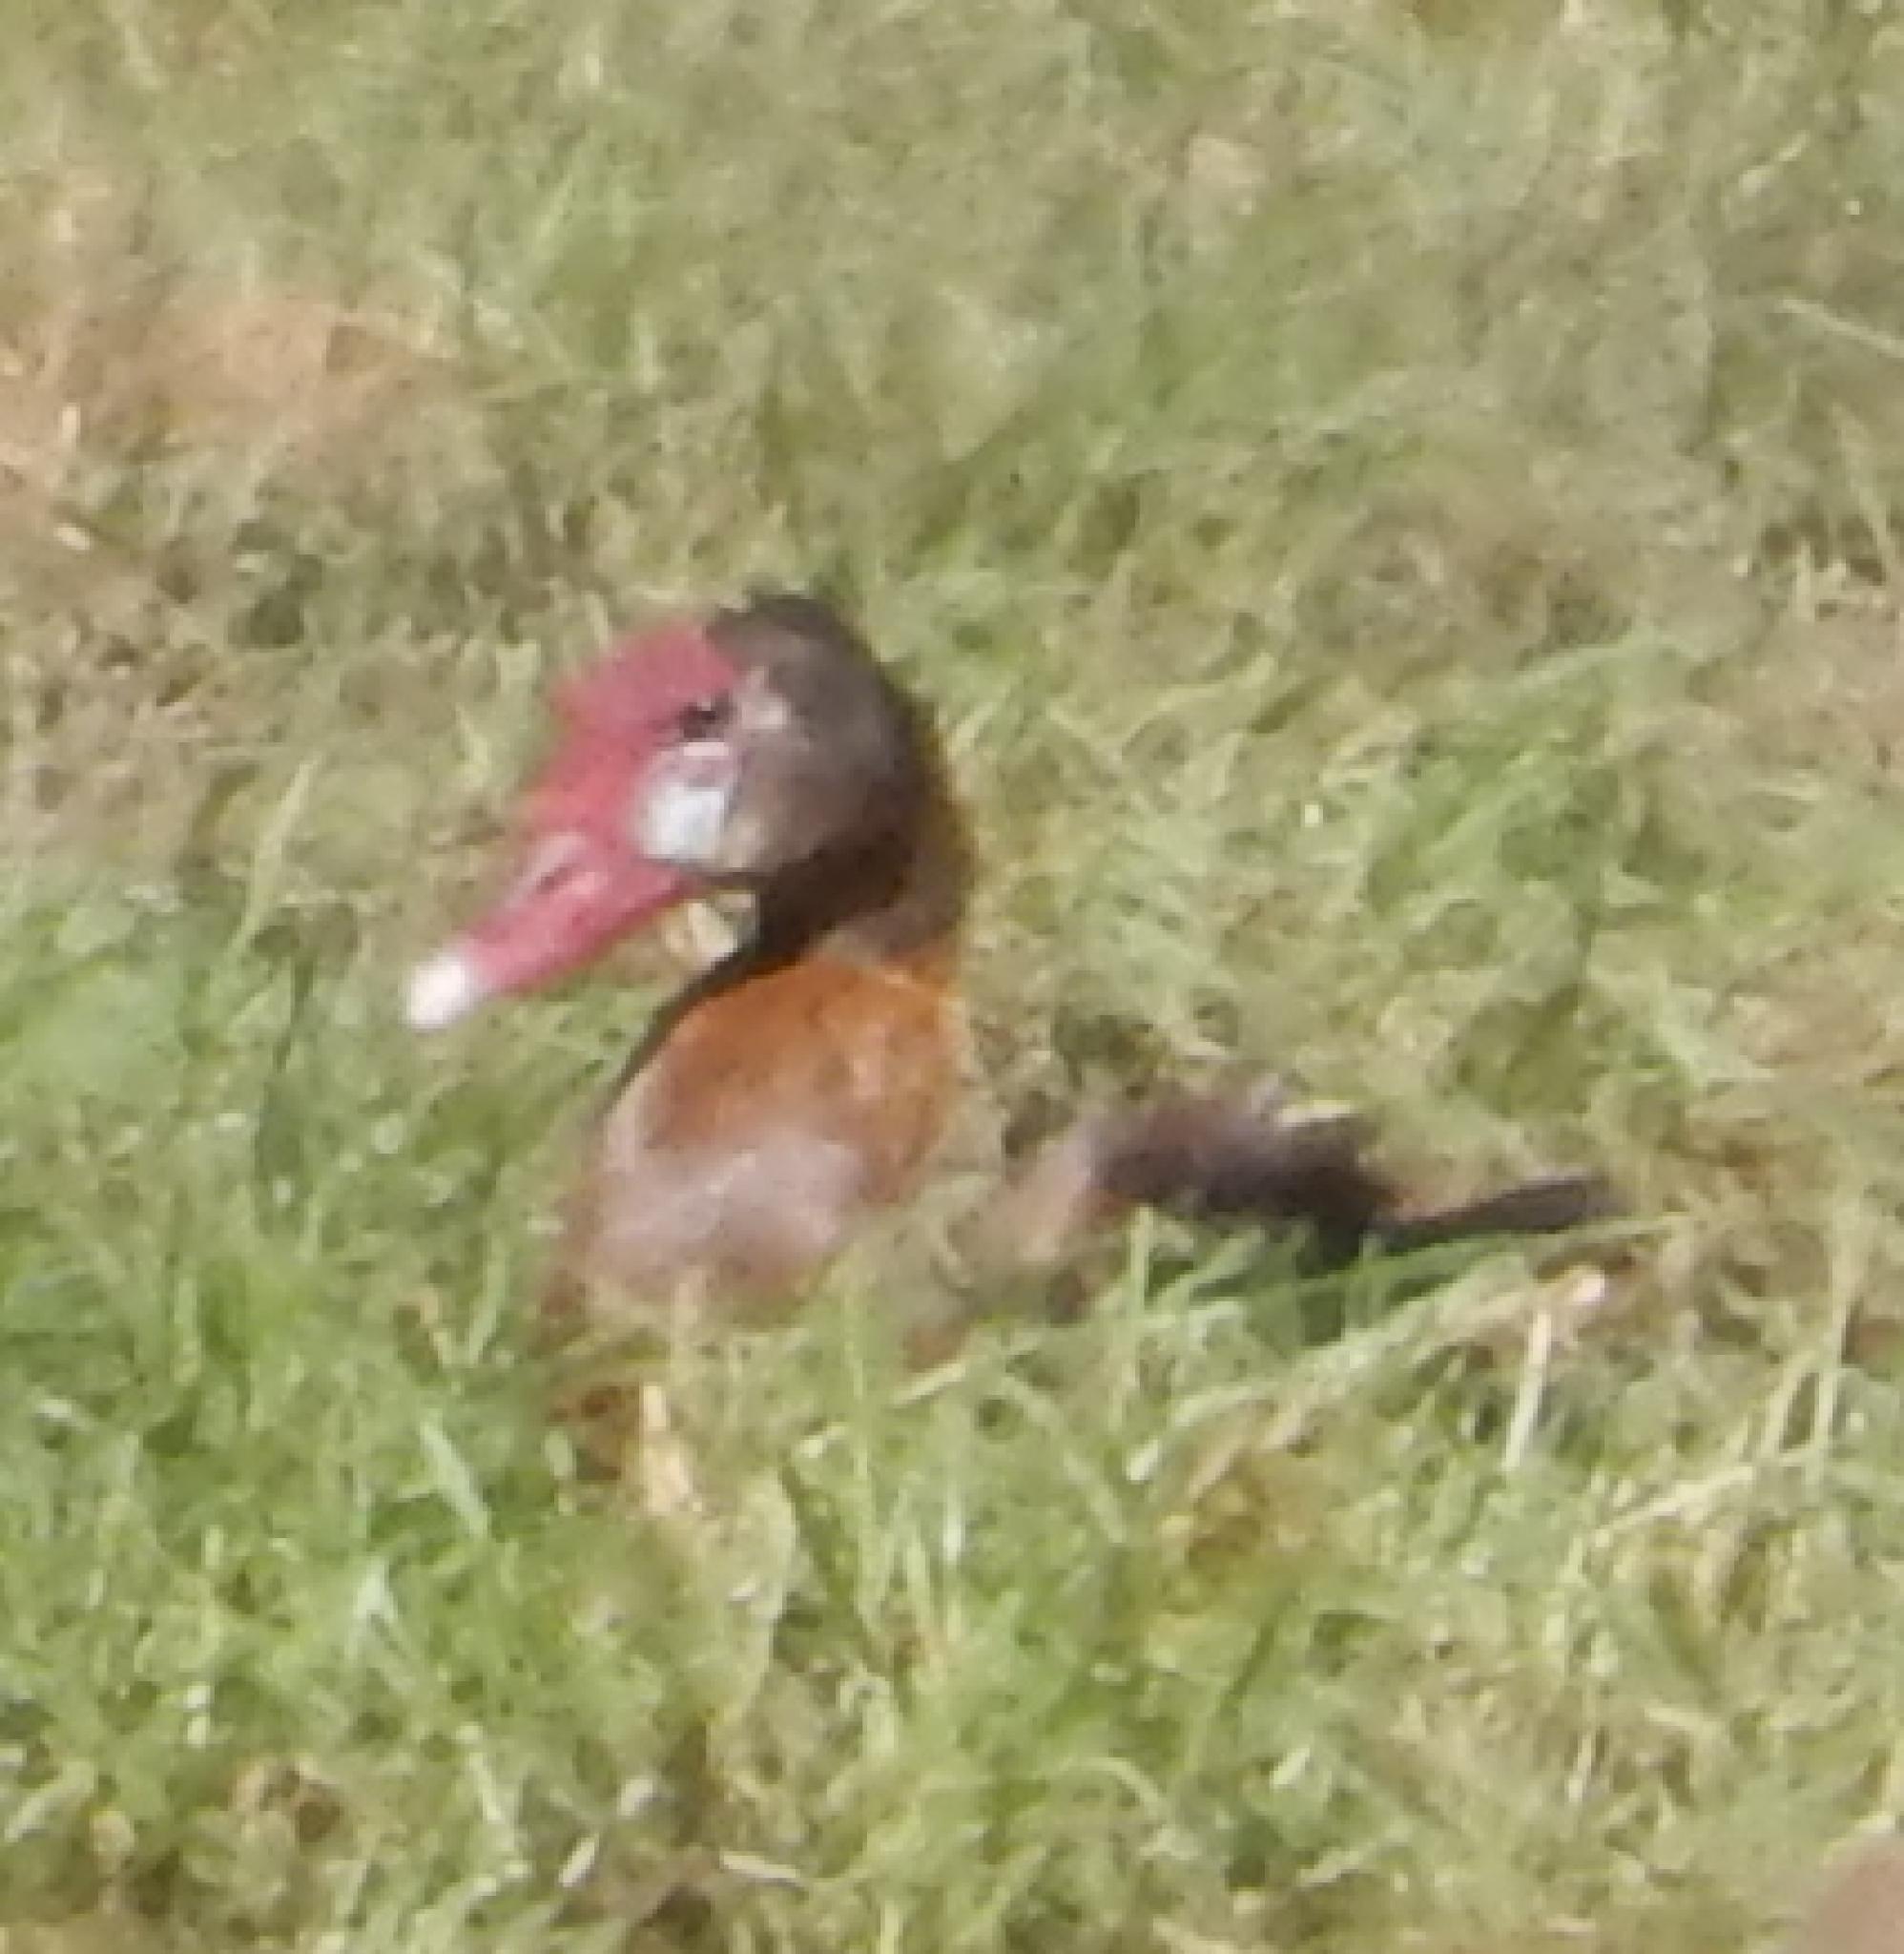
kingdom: Animalia
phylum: Chordata
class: Aves
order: Anseriformes
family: Anatidae
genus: Plectropterus
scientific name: Plectropterus gambensis
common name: Spur-winged goose
